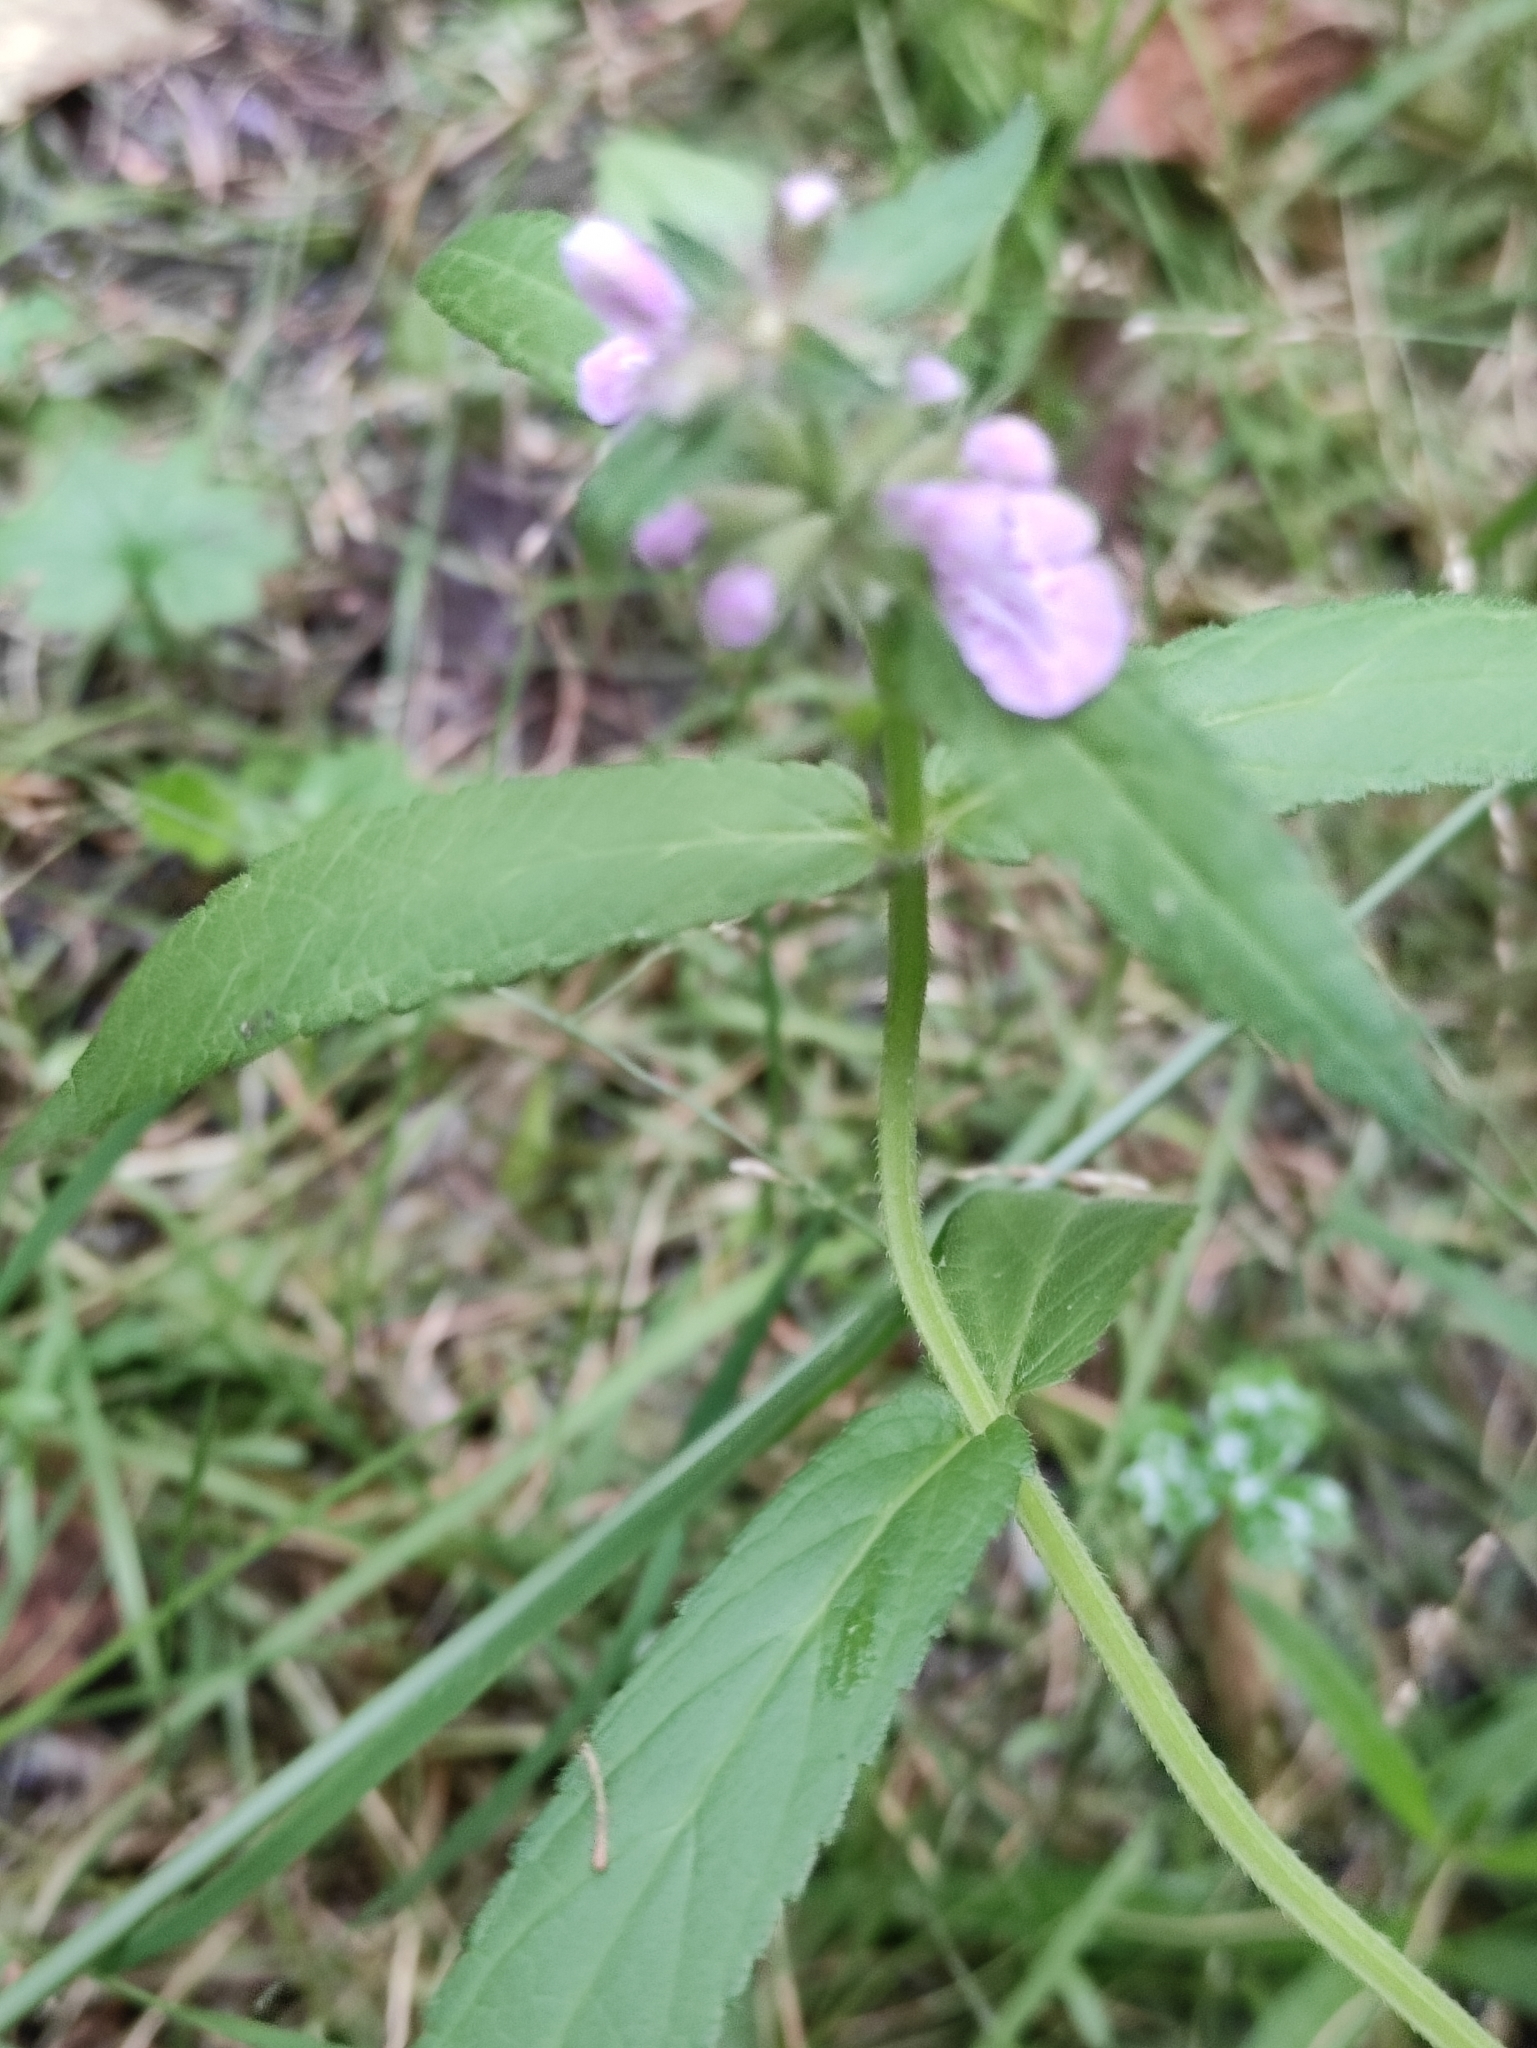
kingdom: Plantae
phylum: Tracheophyta
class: Magnoliopsida
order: Lamiales
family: Lamiaceae
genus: Stachys
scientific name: Stachys palustris
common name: Marsh woundwort
